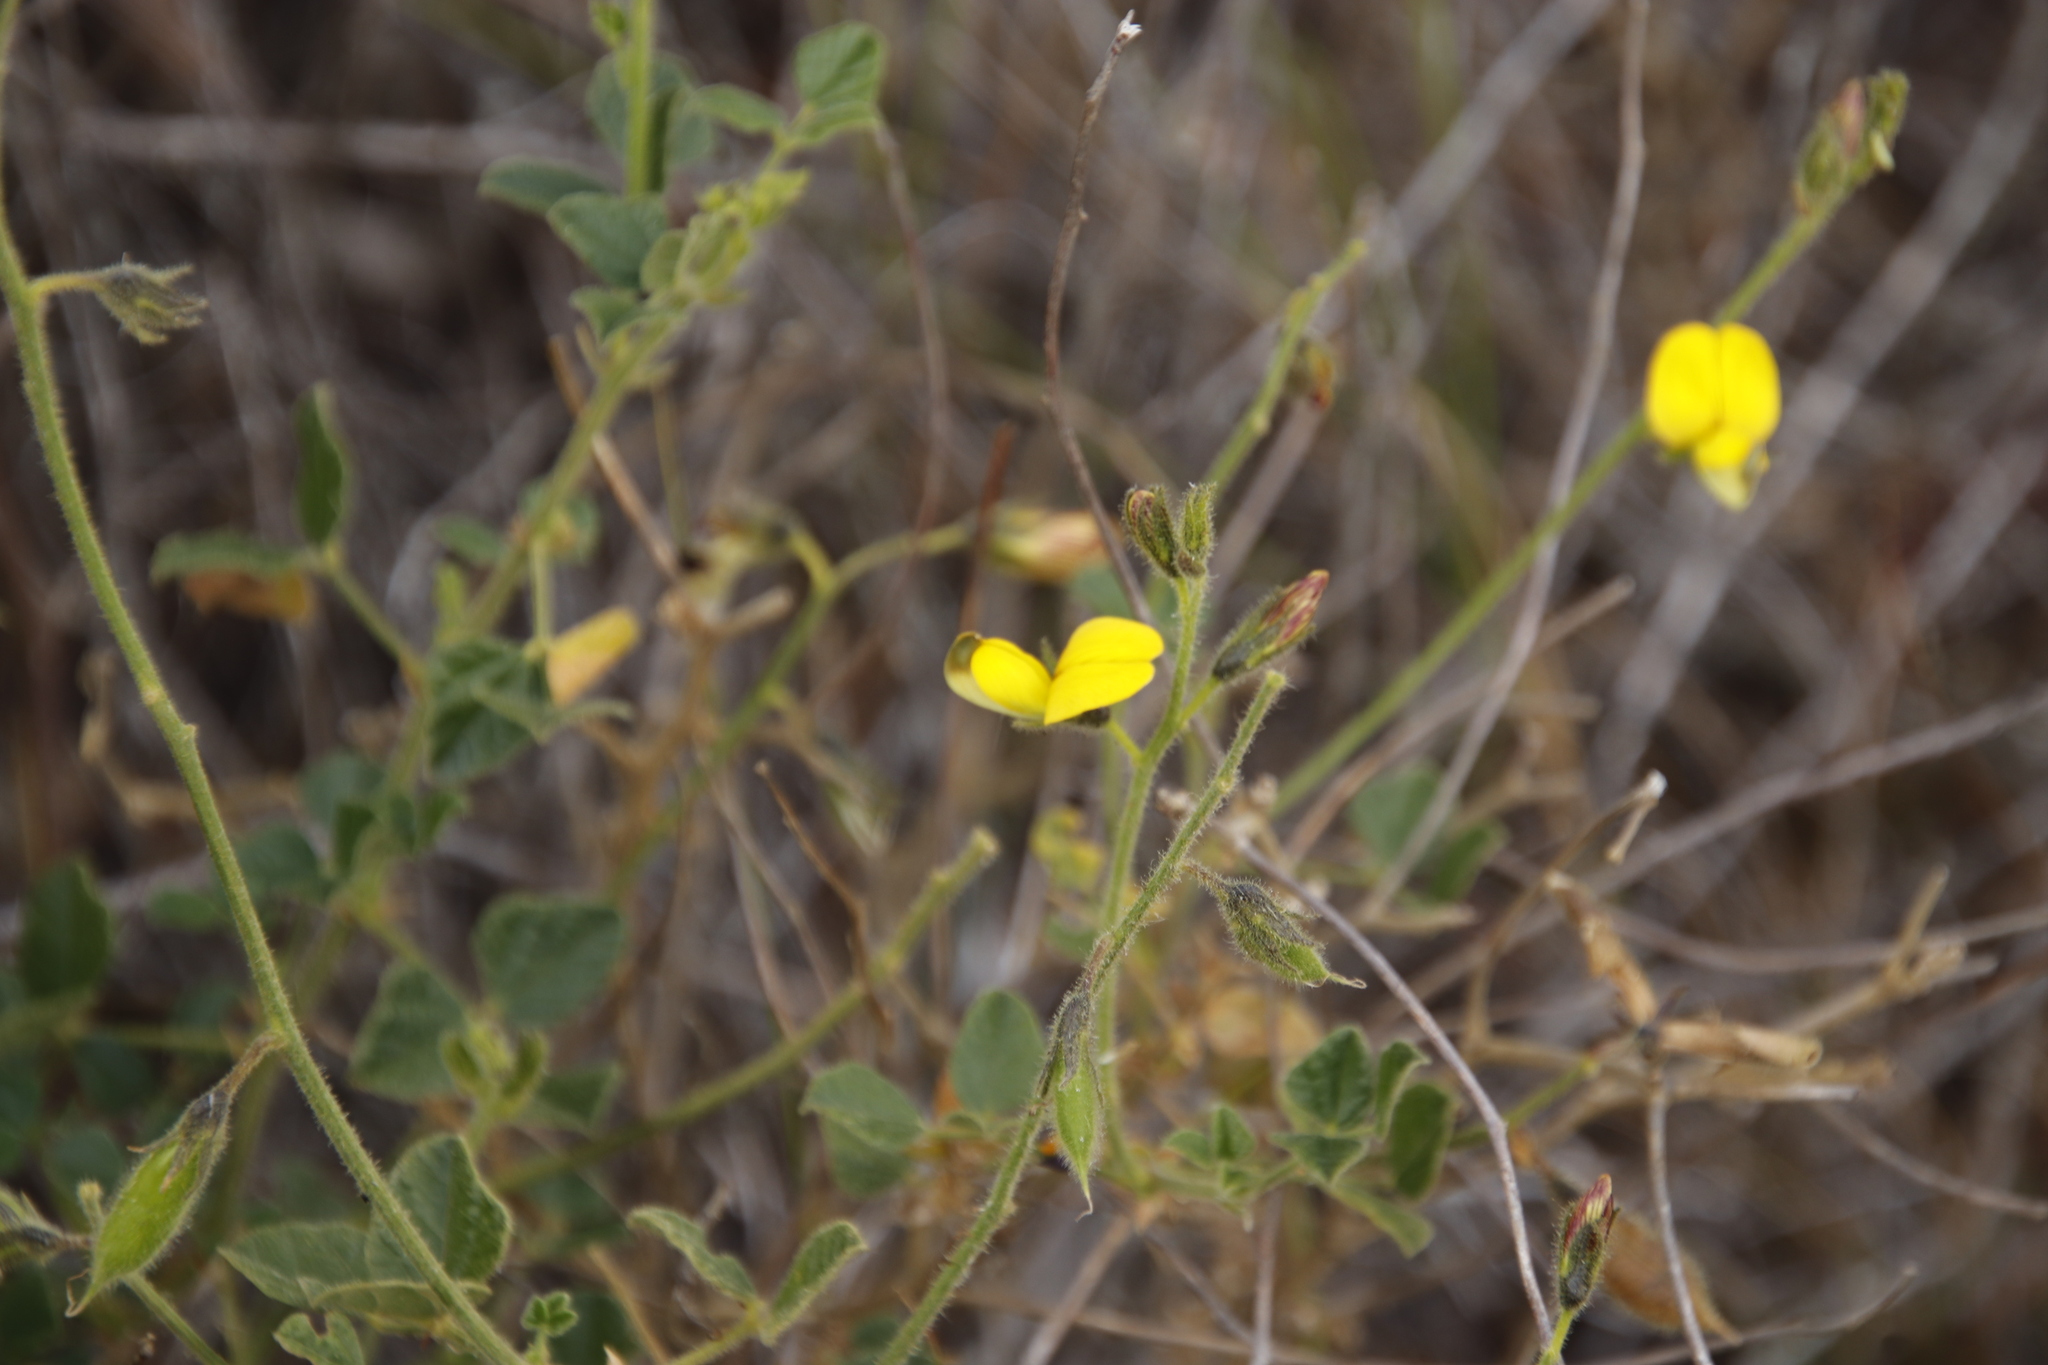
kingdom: Plantae
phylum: Tracheophyta
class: Magnoliopsida
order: Fabales
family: Fabaceae
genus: Bolusafra
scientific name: Bolusafra bituminosa
